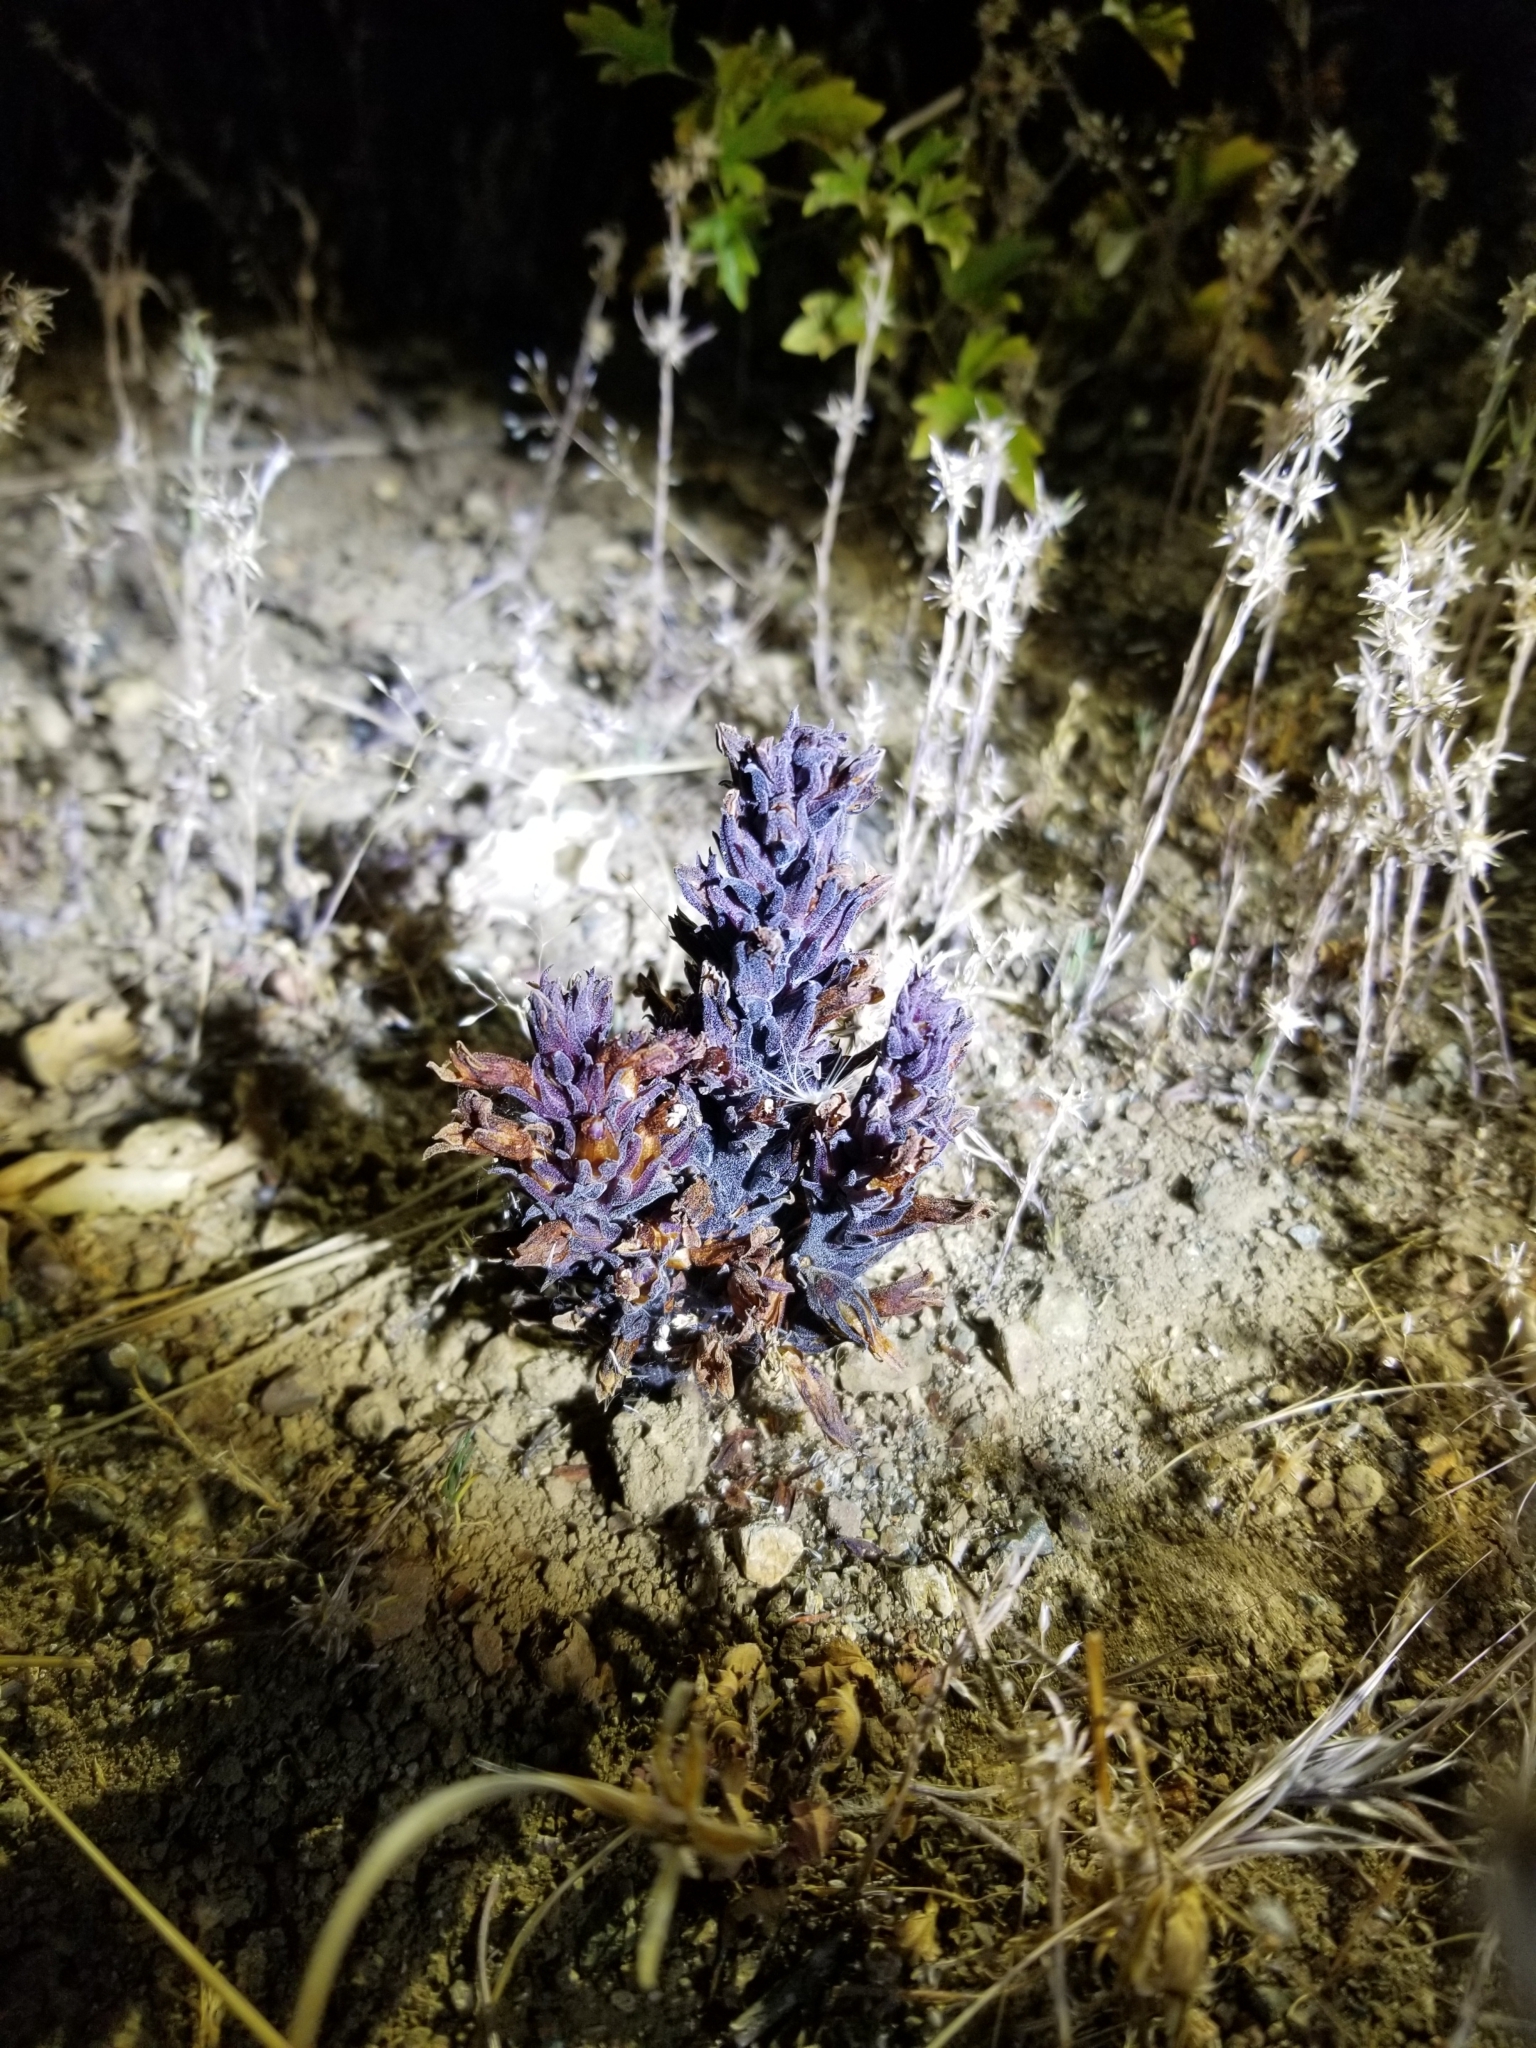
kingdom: Plantae
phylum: Tracheophyta
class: Magnoliopsida
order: Lamiales
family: Orobanchaceae
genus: Aphyllon
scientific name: Aphyllon tuberosum
